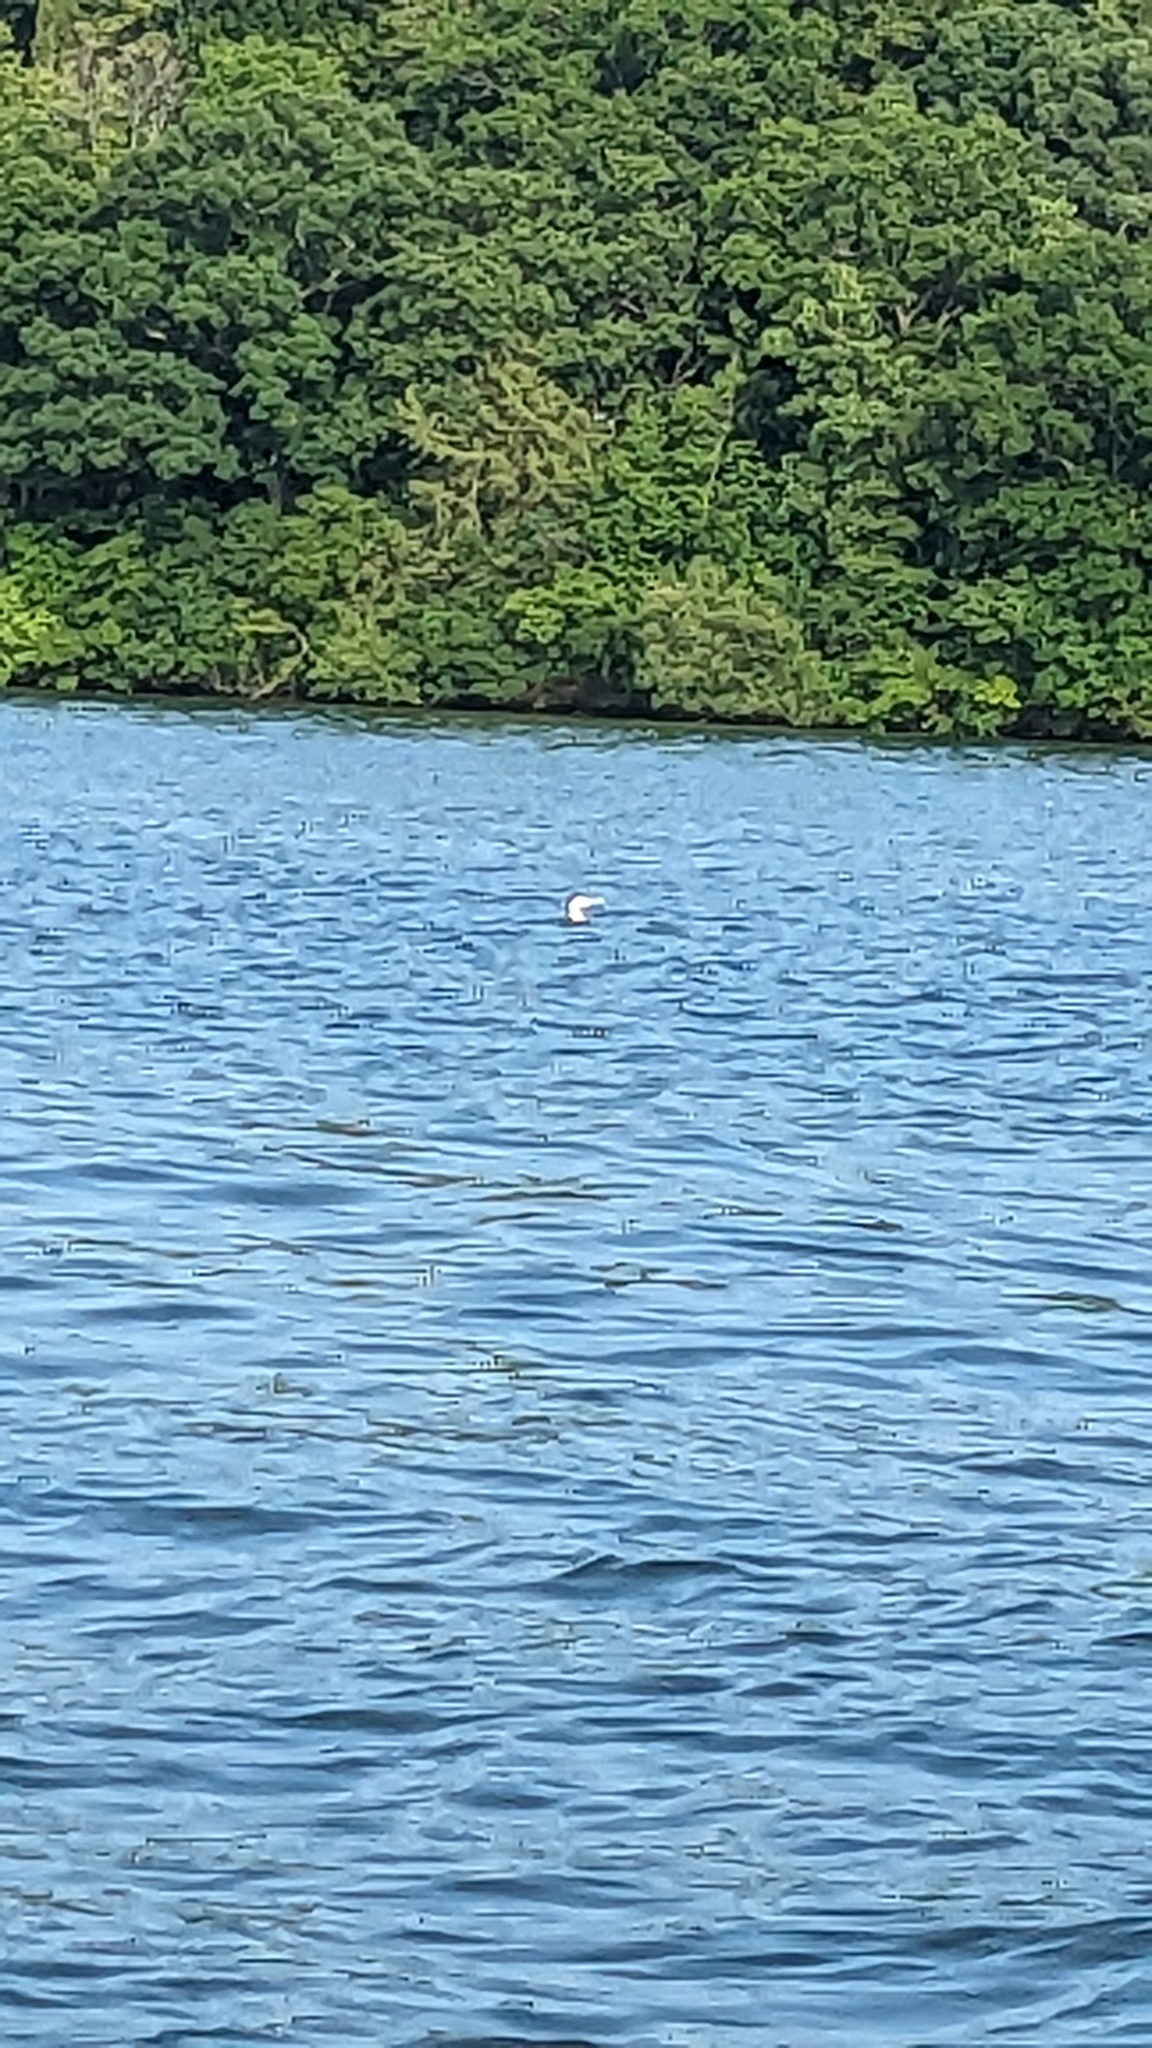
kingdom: Animalia
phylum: Chordata
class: Aves
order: Gaviiformes
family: Gaviidae
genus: Gavia
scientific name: Gavia immer
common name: Common loon
